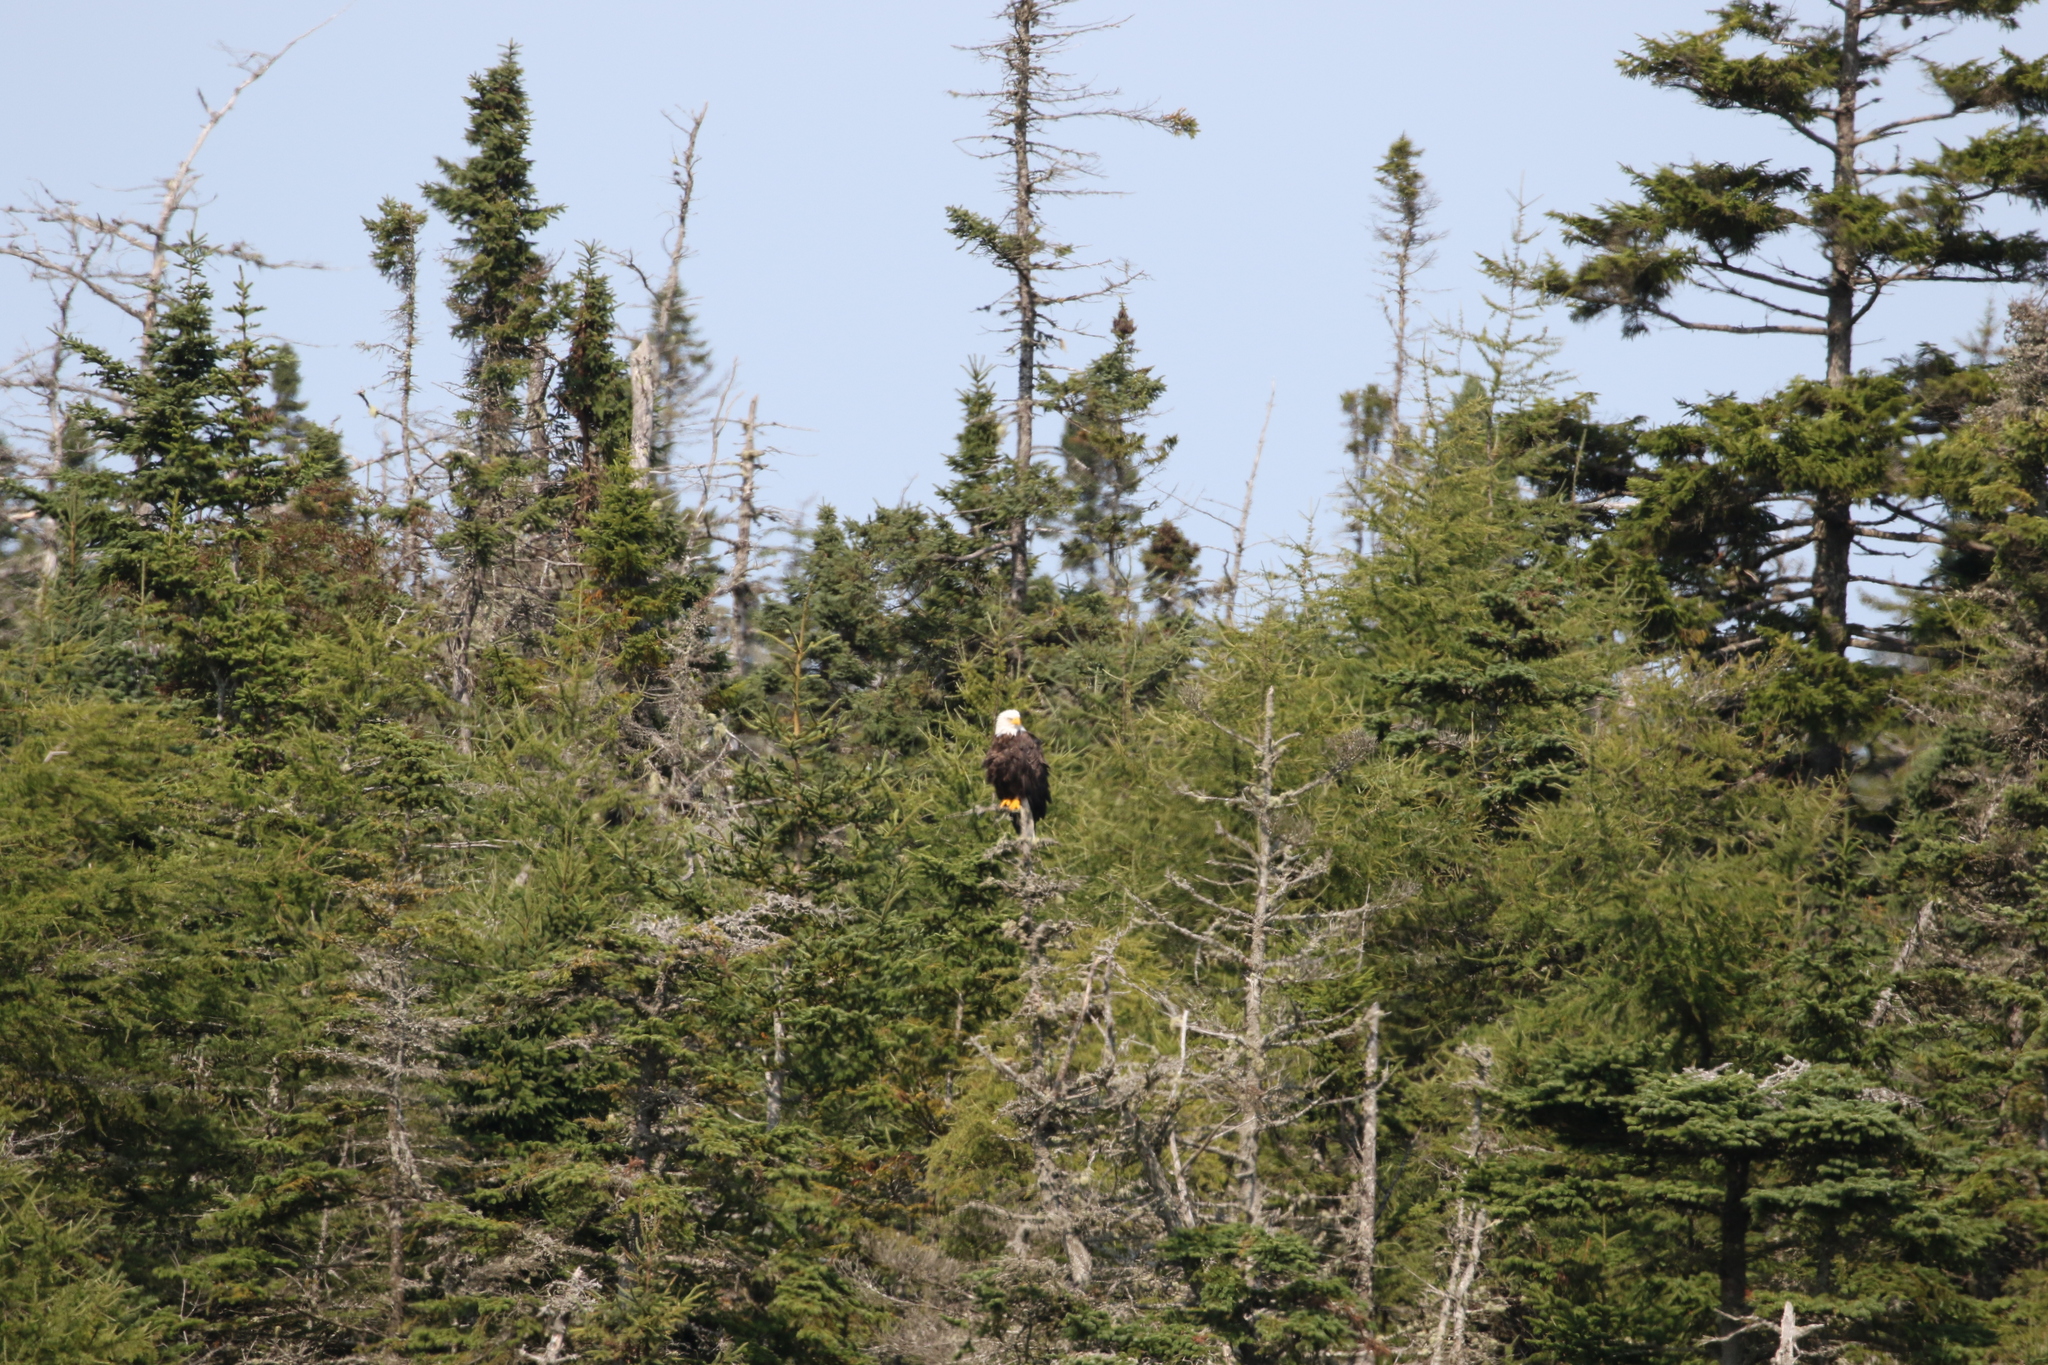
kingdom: Animalia
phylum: Chordata
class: Aves
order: Accipitriformes
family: Accipitridae
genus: Haliaeetus
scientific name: Haliaeetus leucocephalus
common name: Bald eagle
